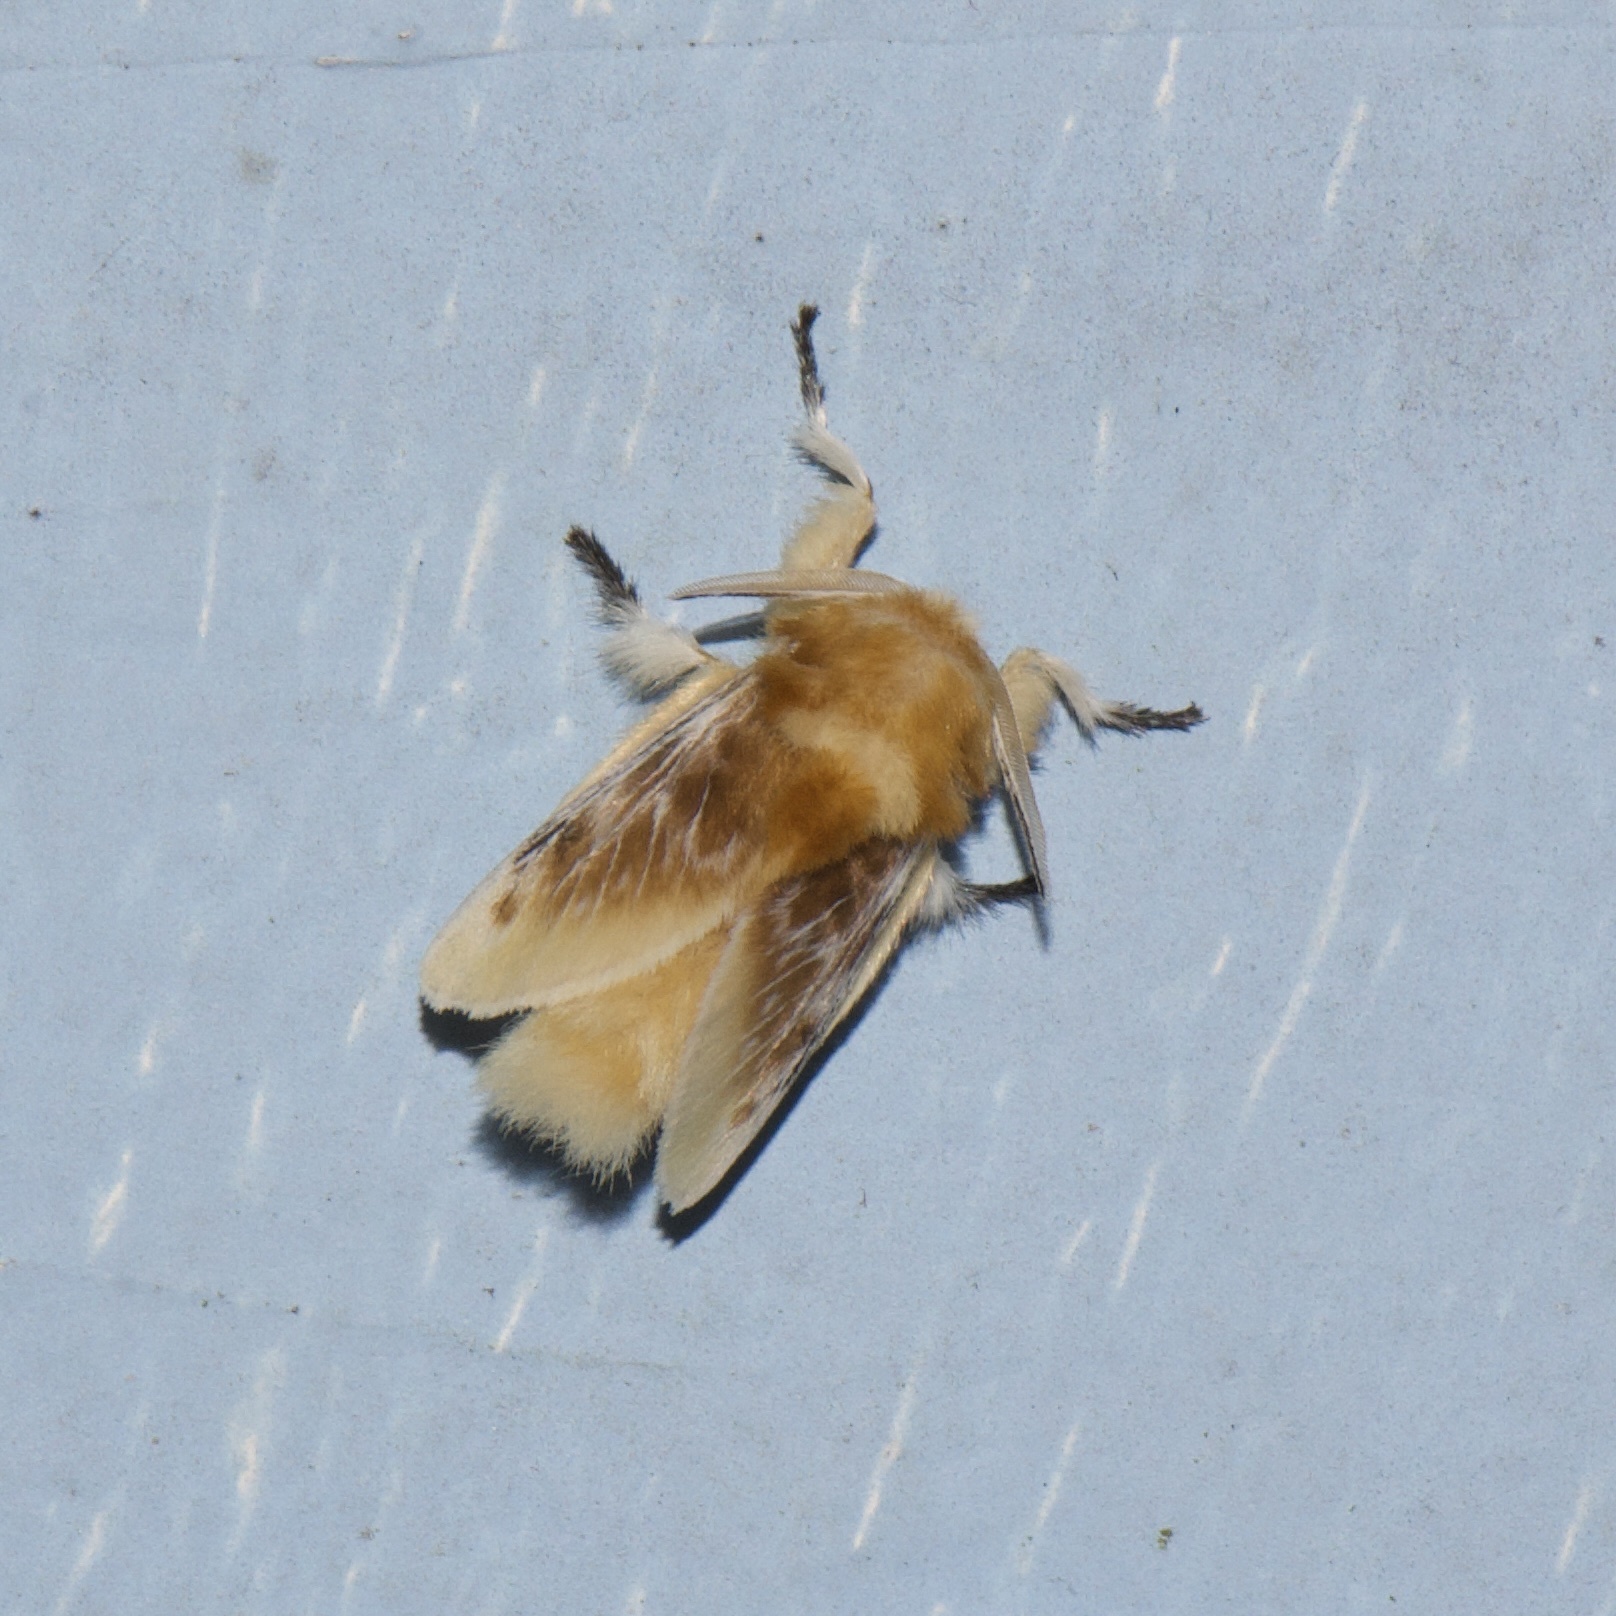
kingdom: Animalia
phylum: Arthropoda
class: Insecta
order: Lepidoptera
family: Megalopygidae
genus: Megalopyge
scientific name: Megalopyge opercularis
